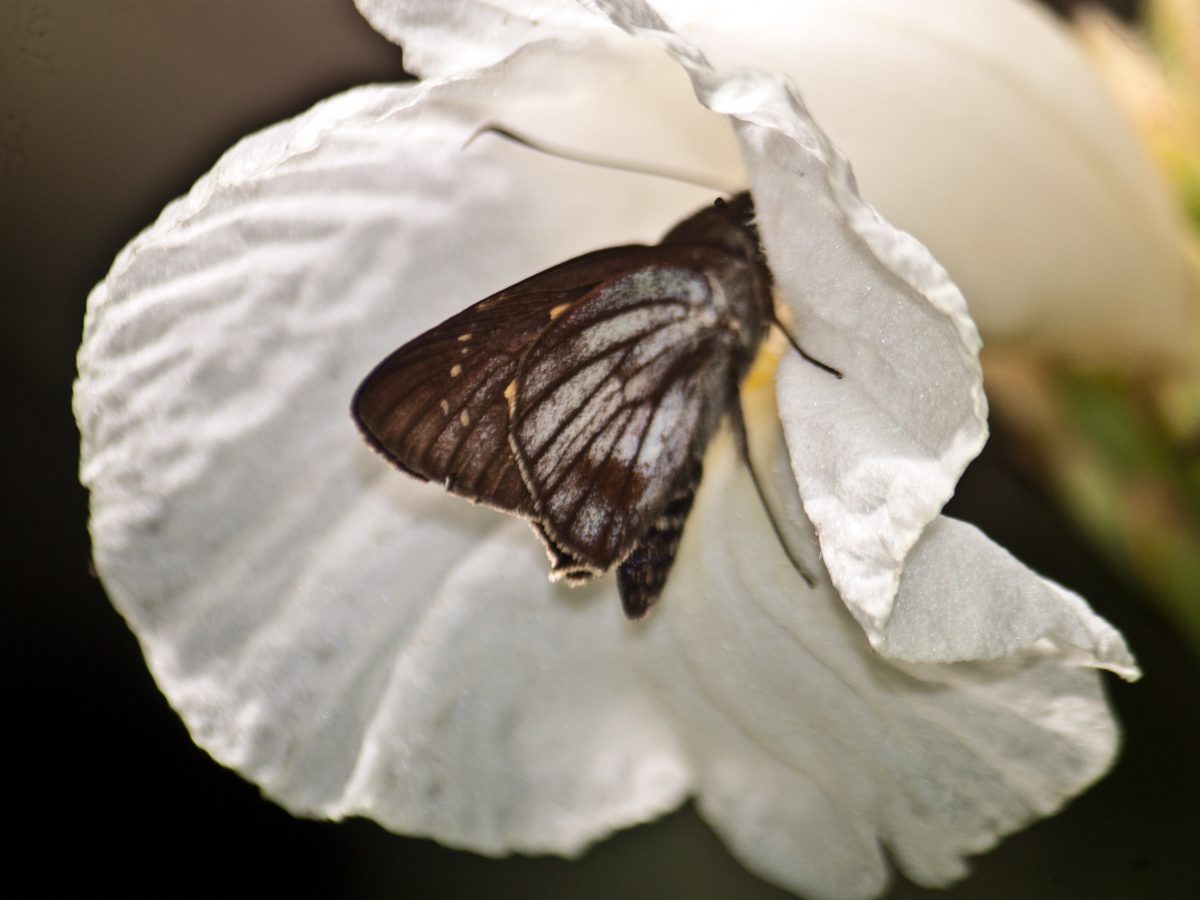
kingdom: Animalia
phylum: Arthropoda
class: Insecta
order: Lepidoptera
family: Hesperiidae
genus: Unkana
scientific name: Unkana ambasa
